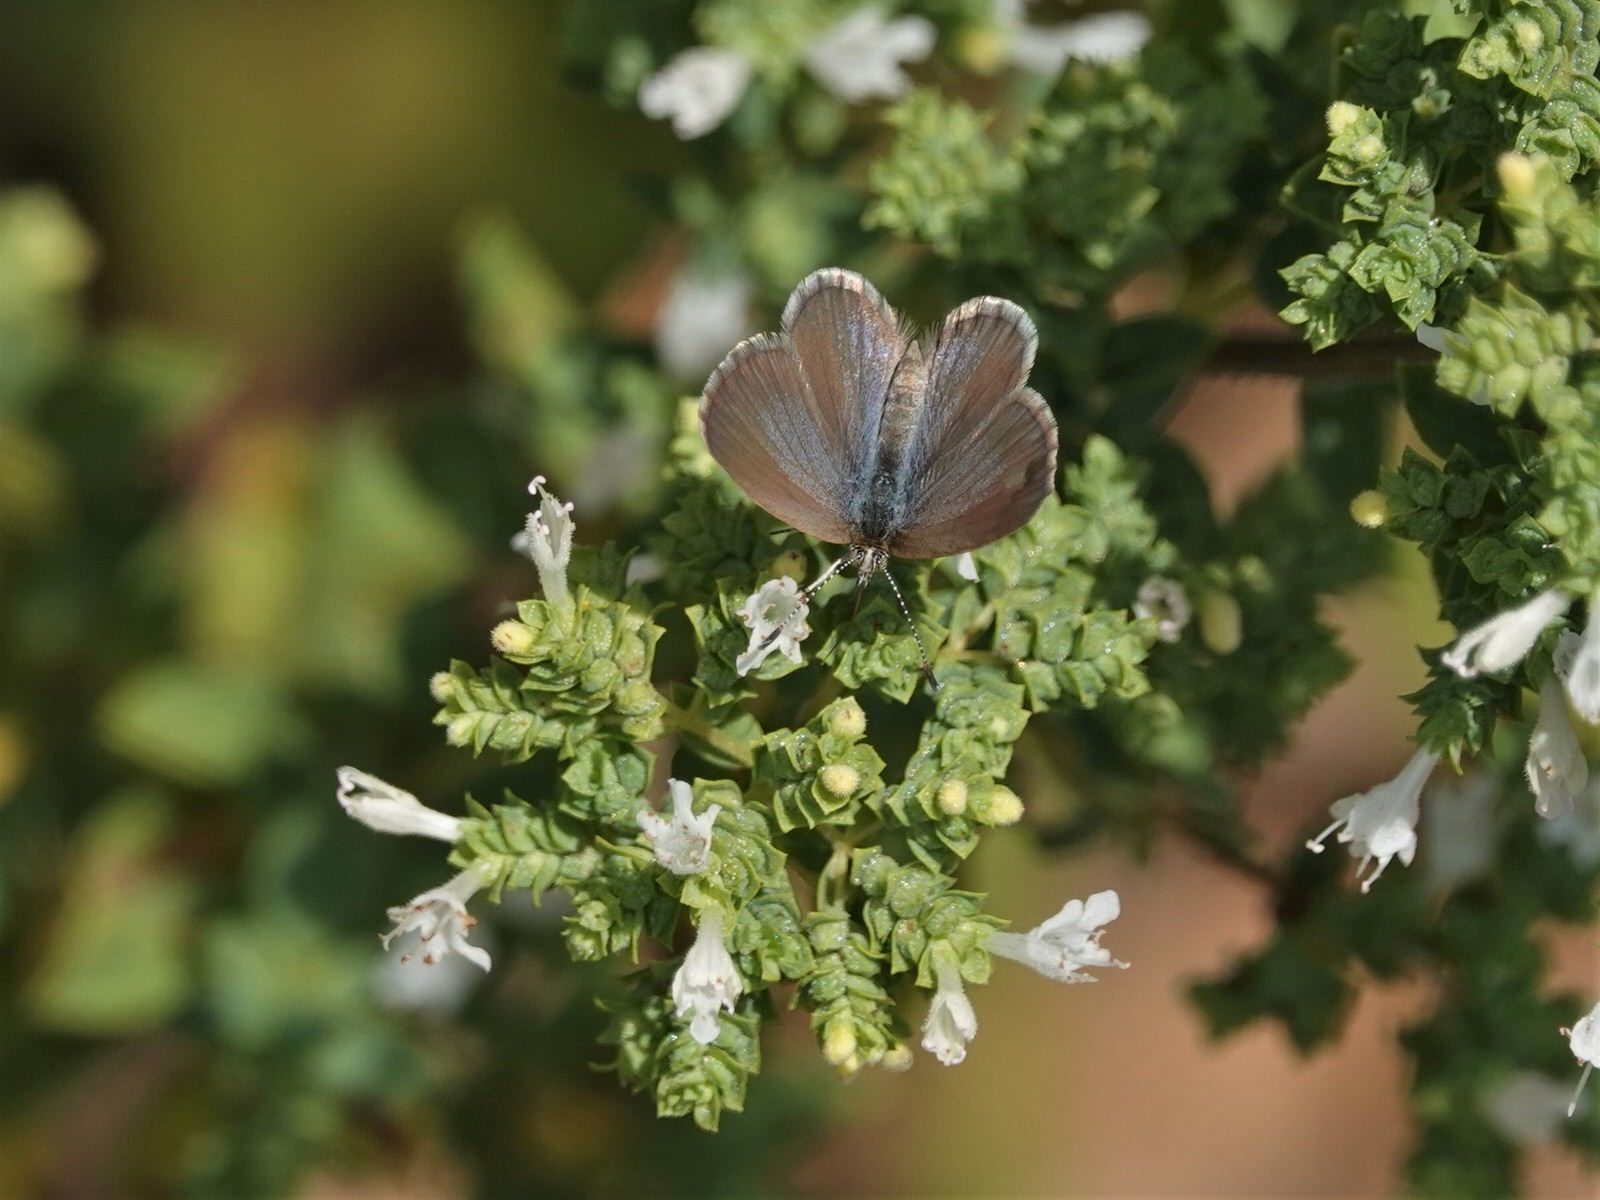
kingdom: Animalia
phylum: Arthropoda
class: Insecta
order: Lepidoptera
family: Lycaenidae
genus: Zizina
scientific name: Zizina labradus
